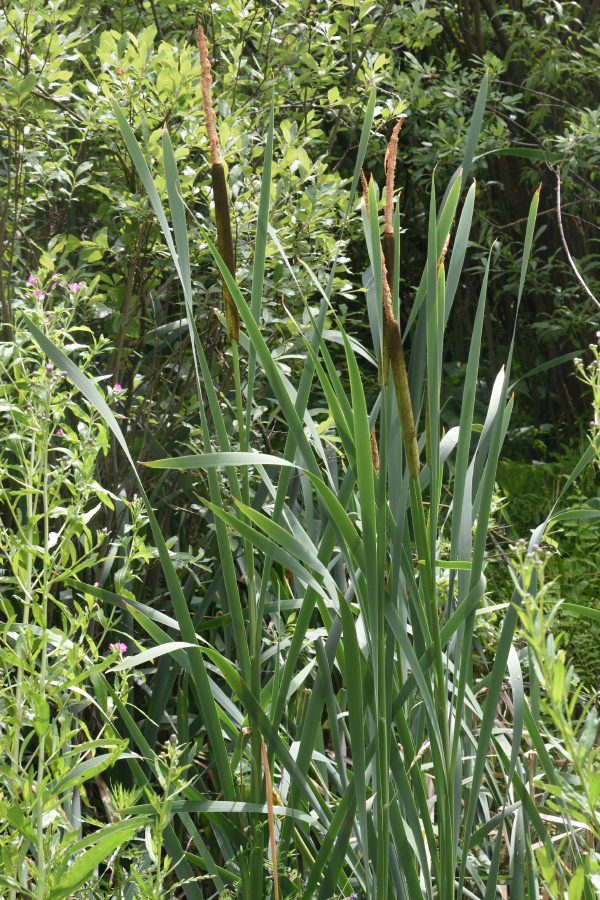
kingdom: Plantae
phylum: Tracheophyta
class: Liliopsida
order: Poales
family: Typhaceae
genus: Typha
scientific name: Typha latifolia
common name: Broadleaf cattail
